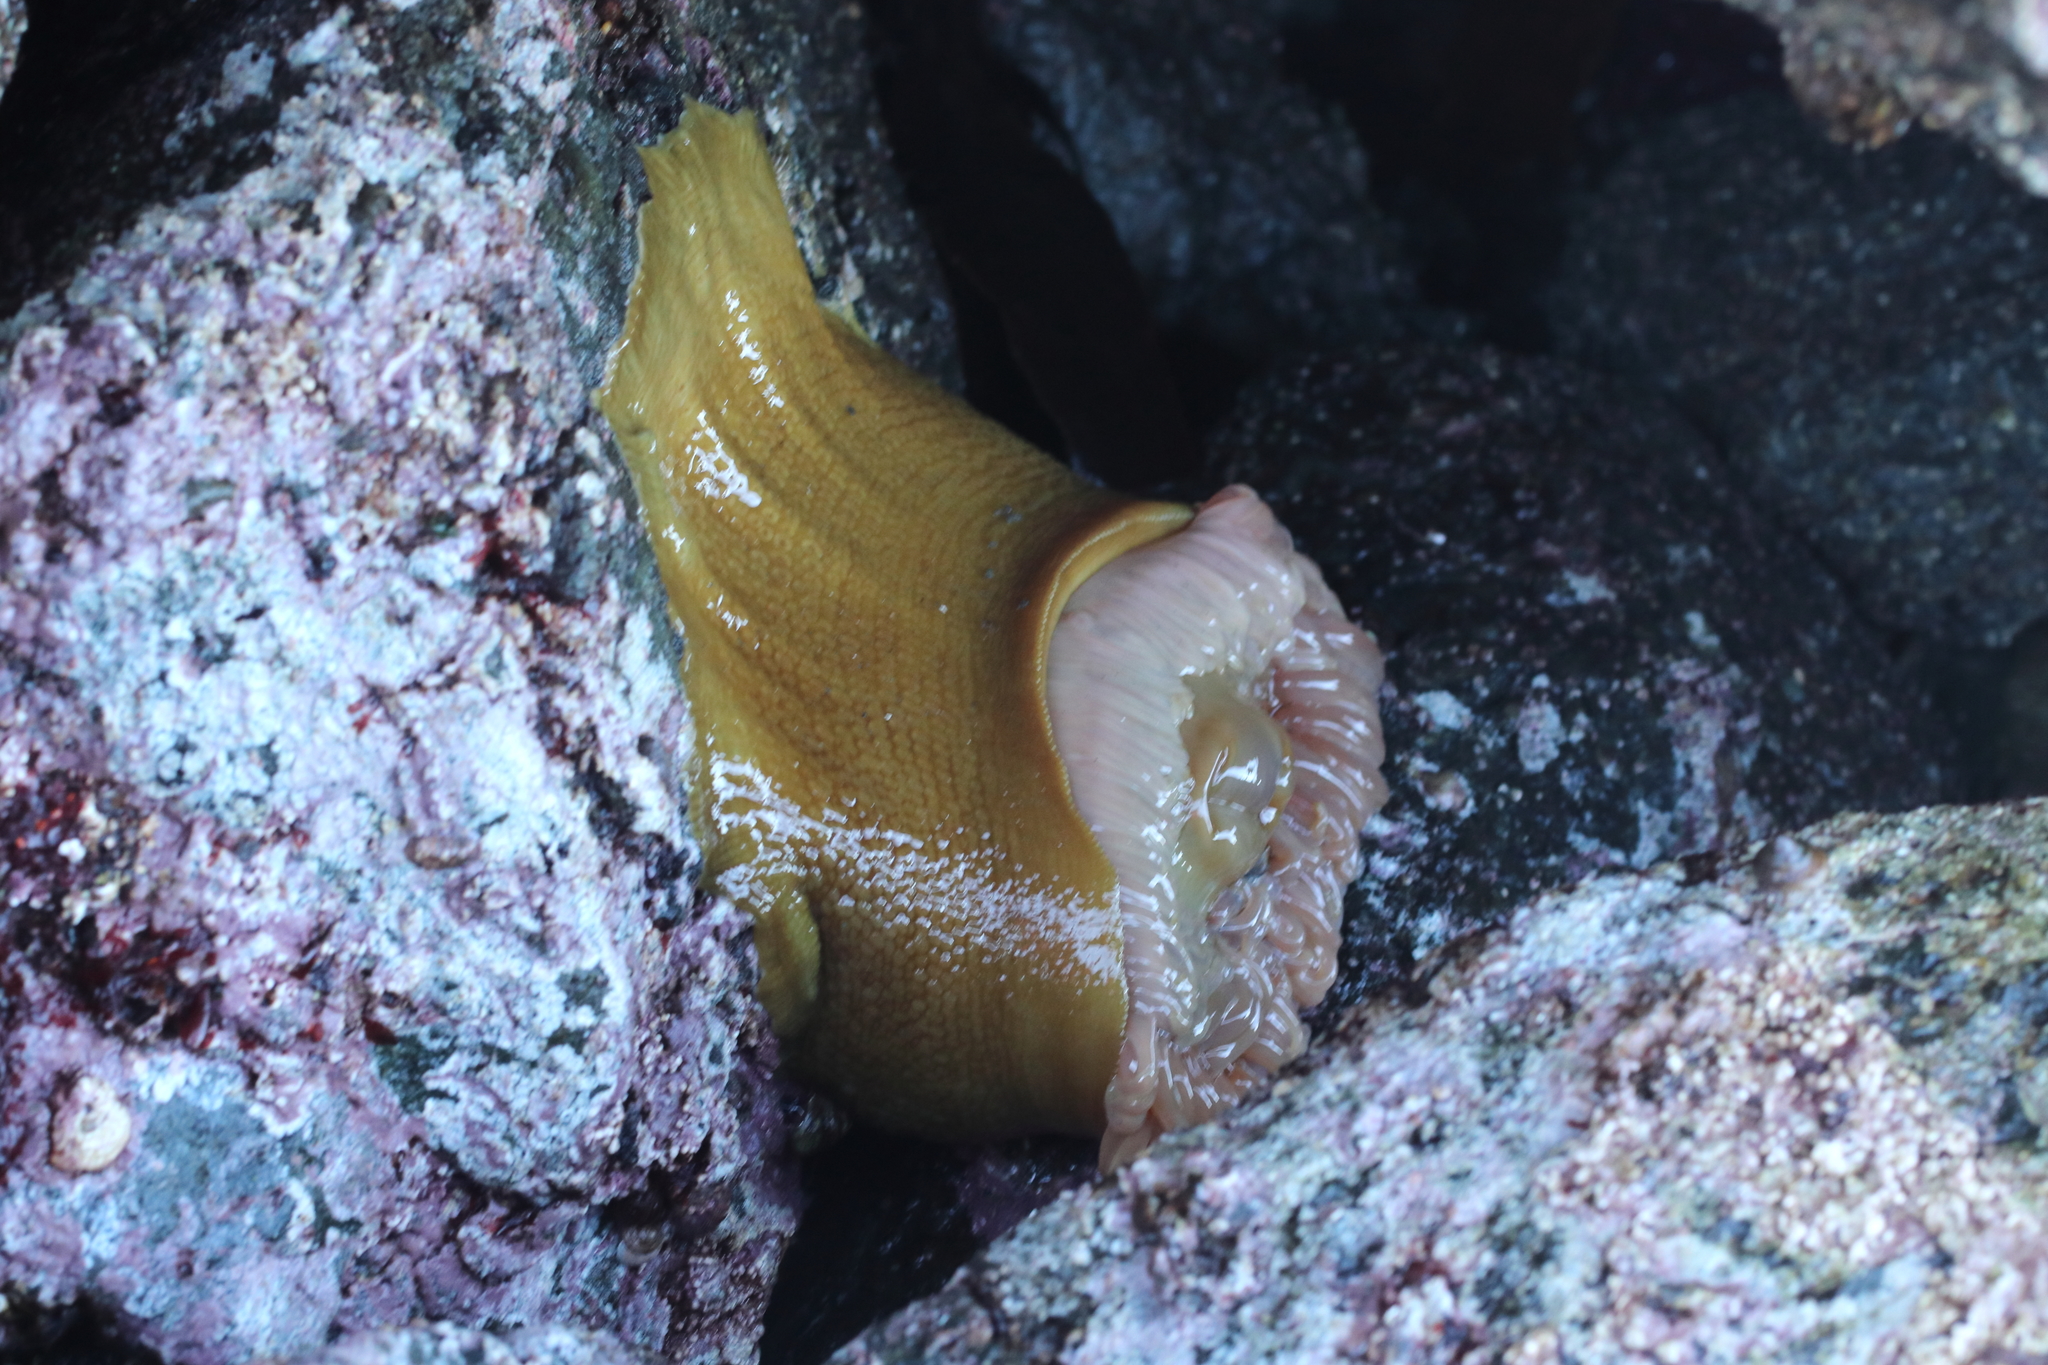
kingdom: Animalia
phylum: Cnidaria
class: Anthozoa
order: Actiniaria
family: Actiniidae
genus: Urticina
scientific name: Urticina grebelnyi
